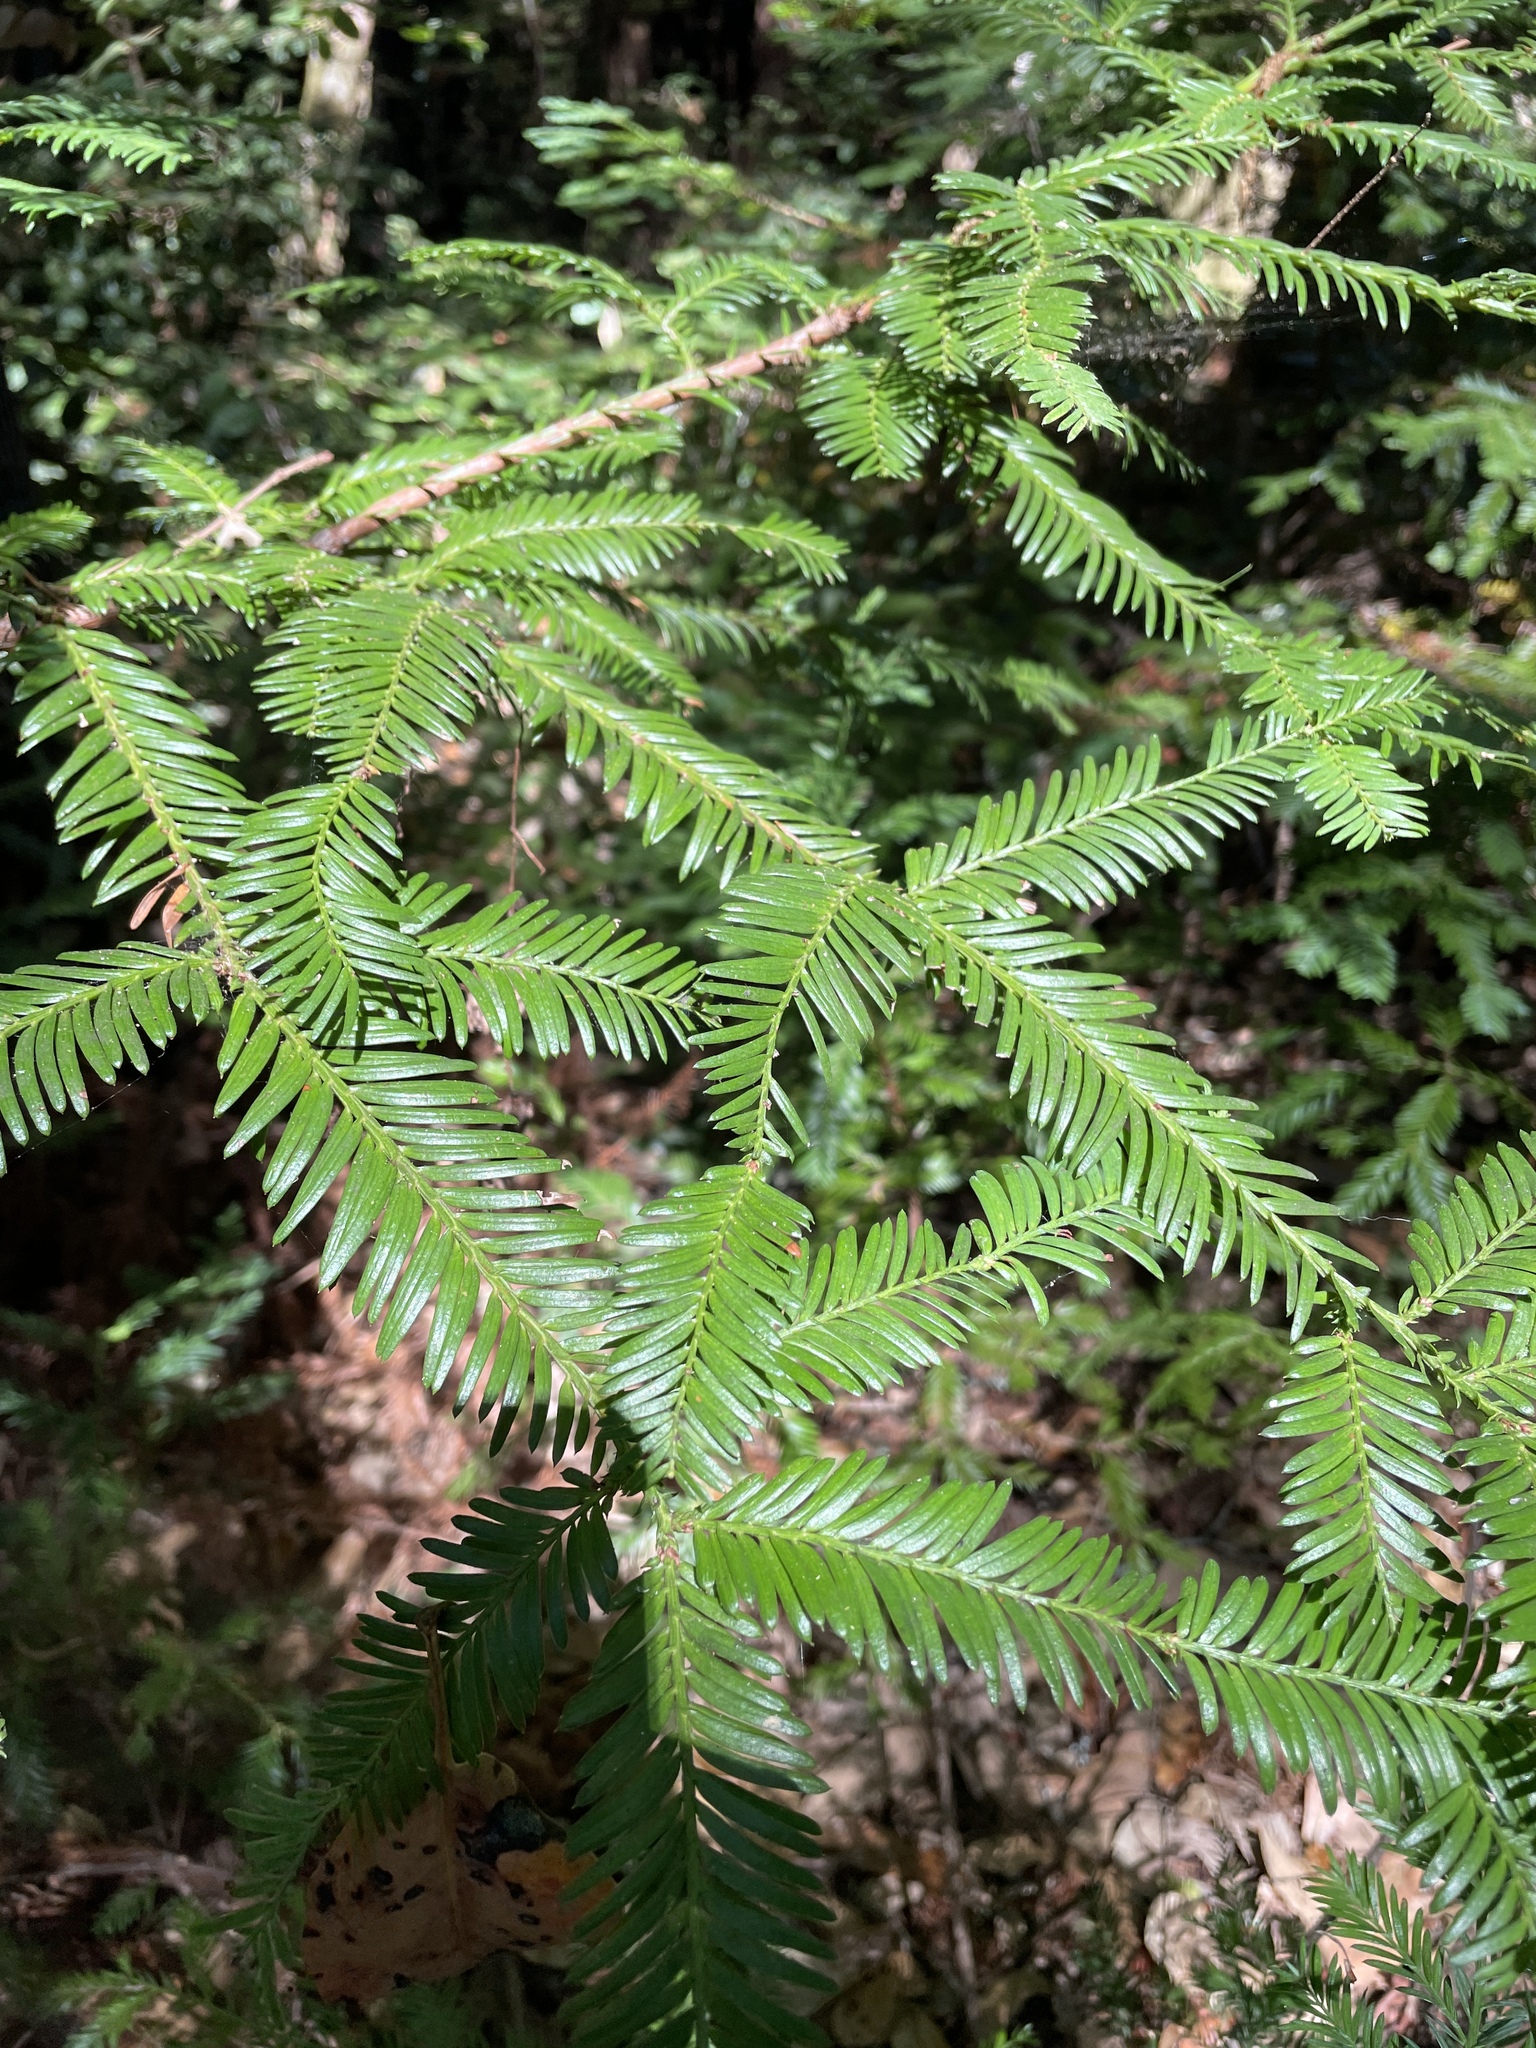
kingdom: Plantae
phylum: Tracheophyta
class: Pinopsida
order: Pinales
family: Cupressaceae
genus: Sequoia
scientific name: Sequoia sempervirens
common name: Coast redwood
